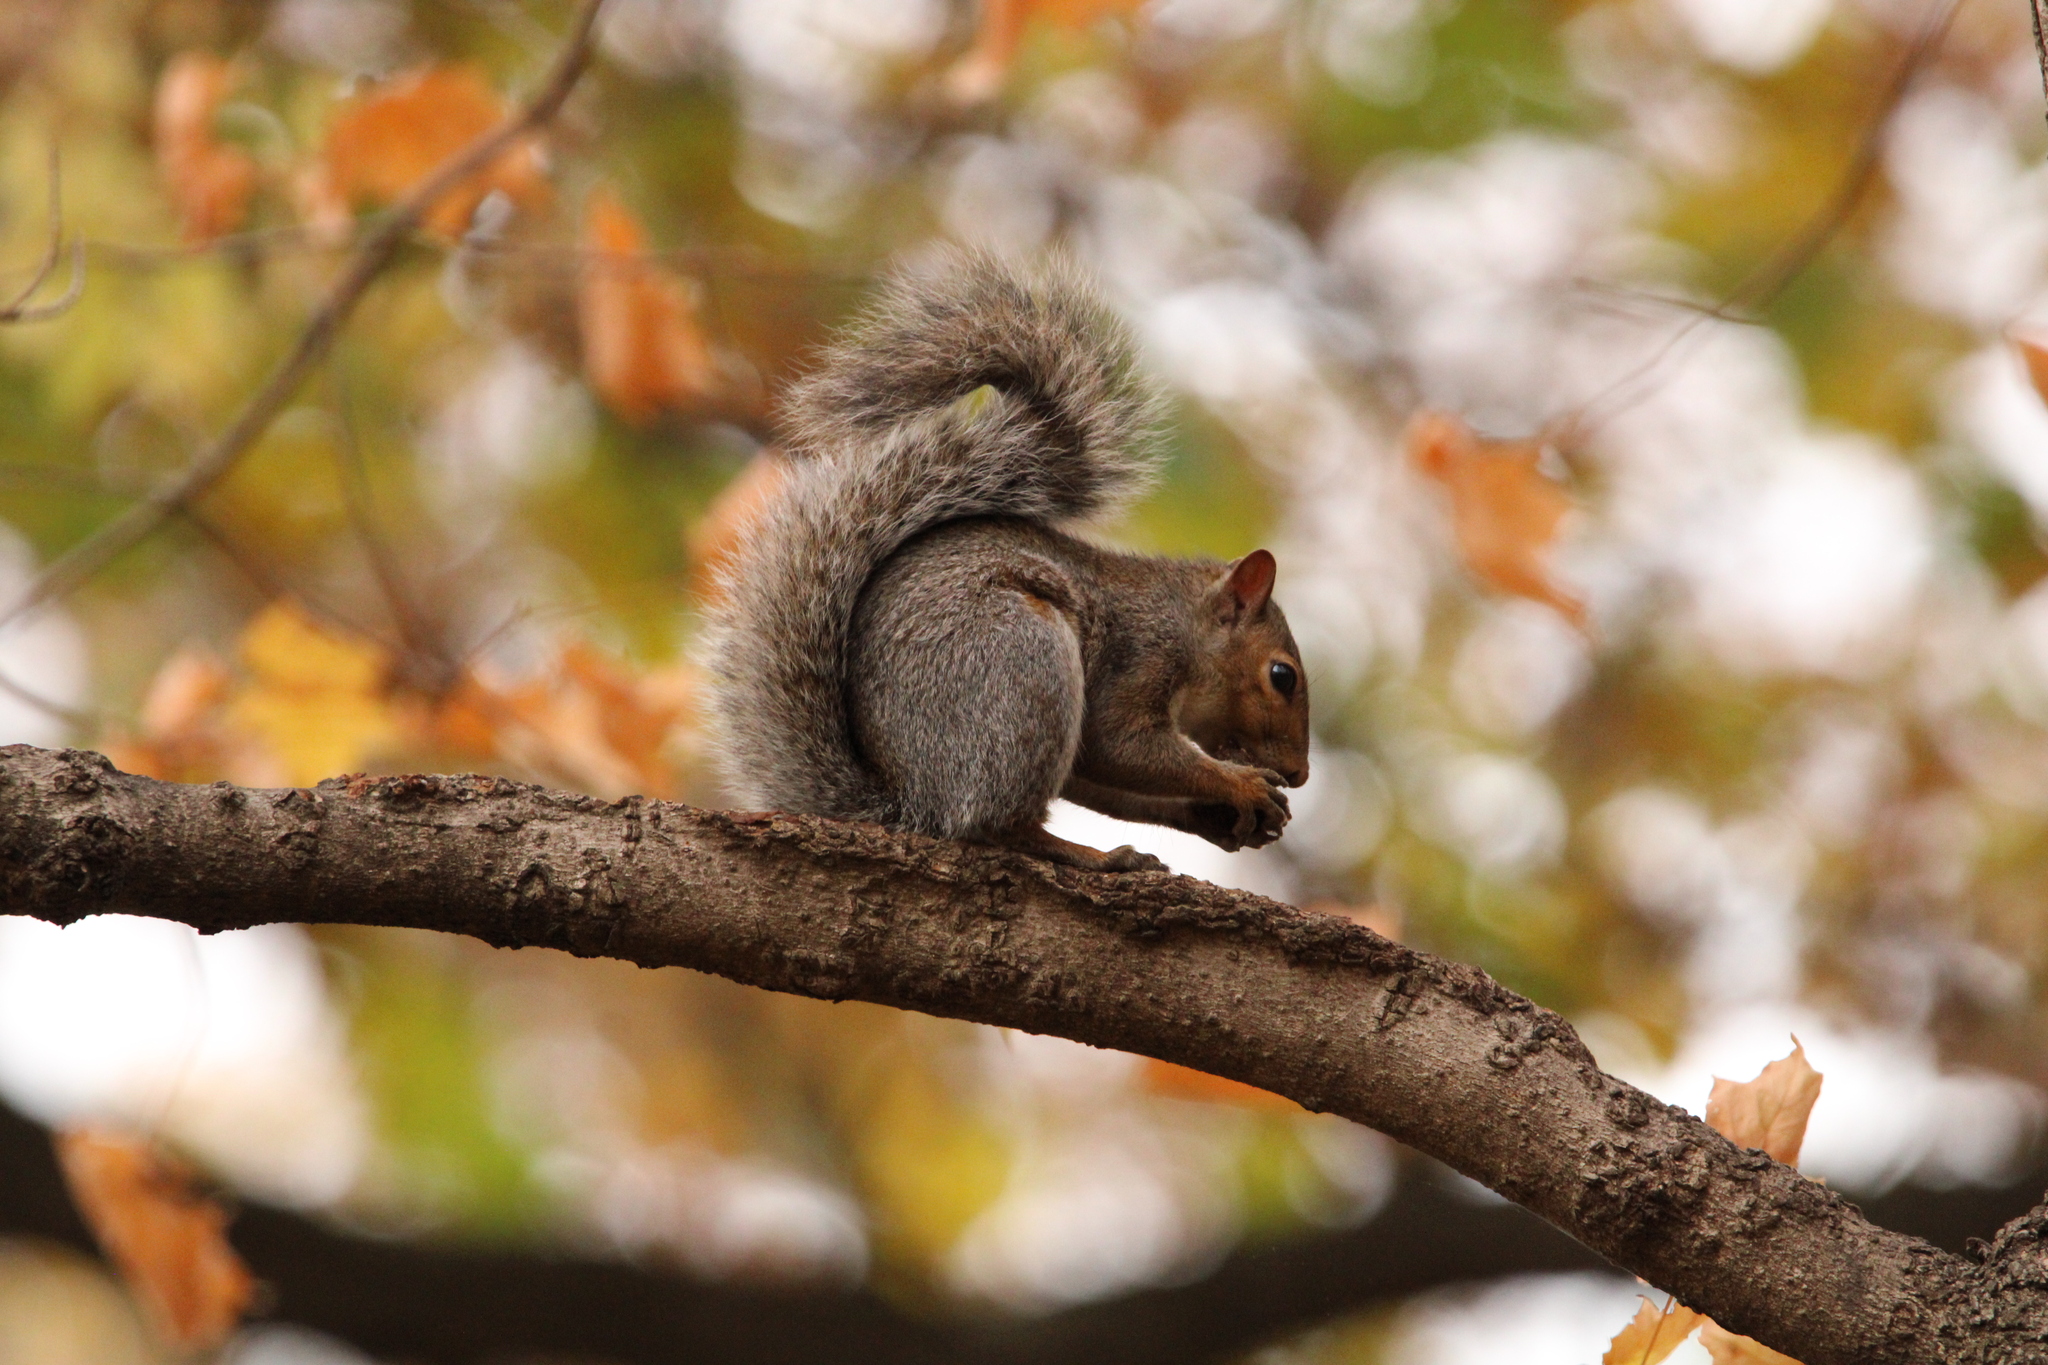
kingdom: Animalia
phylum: Chordata
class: Mammalia
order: Rodentia
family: Sciuridae
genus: Sciurus
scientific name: Sciurus carolinensis
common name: Eastern gray squirrel
